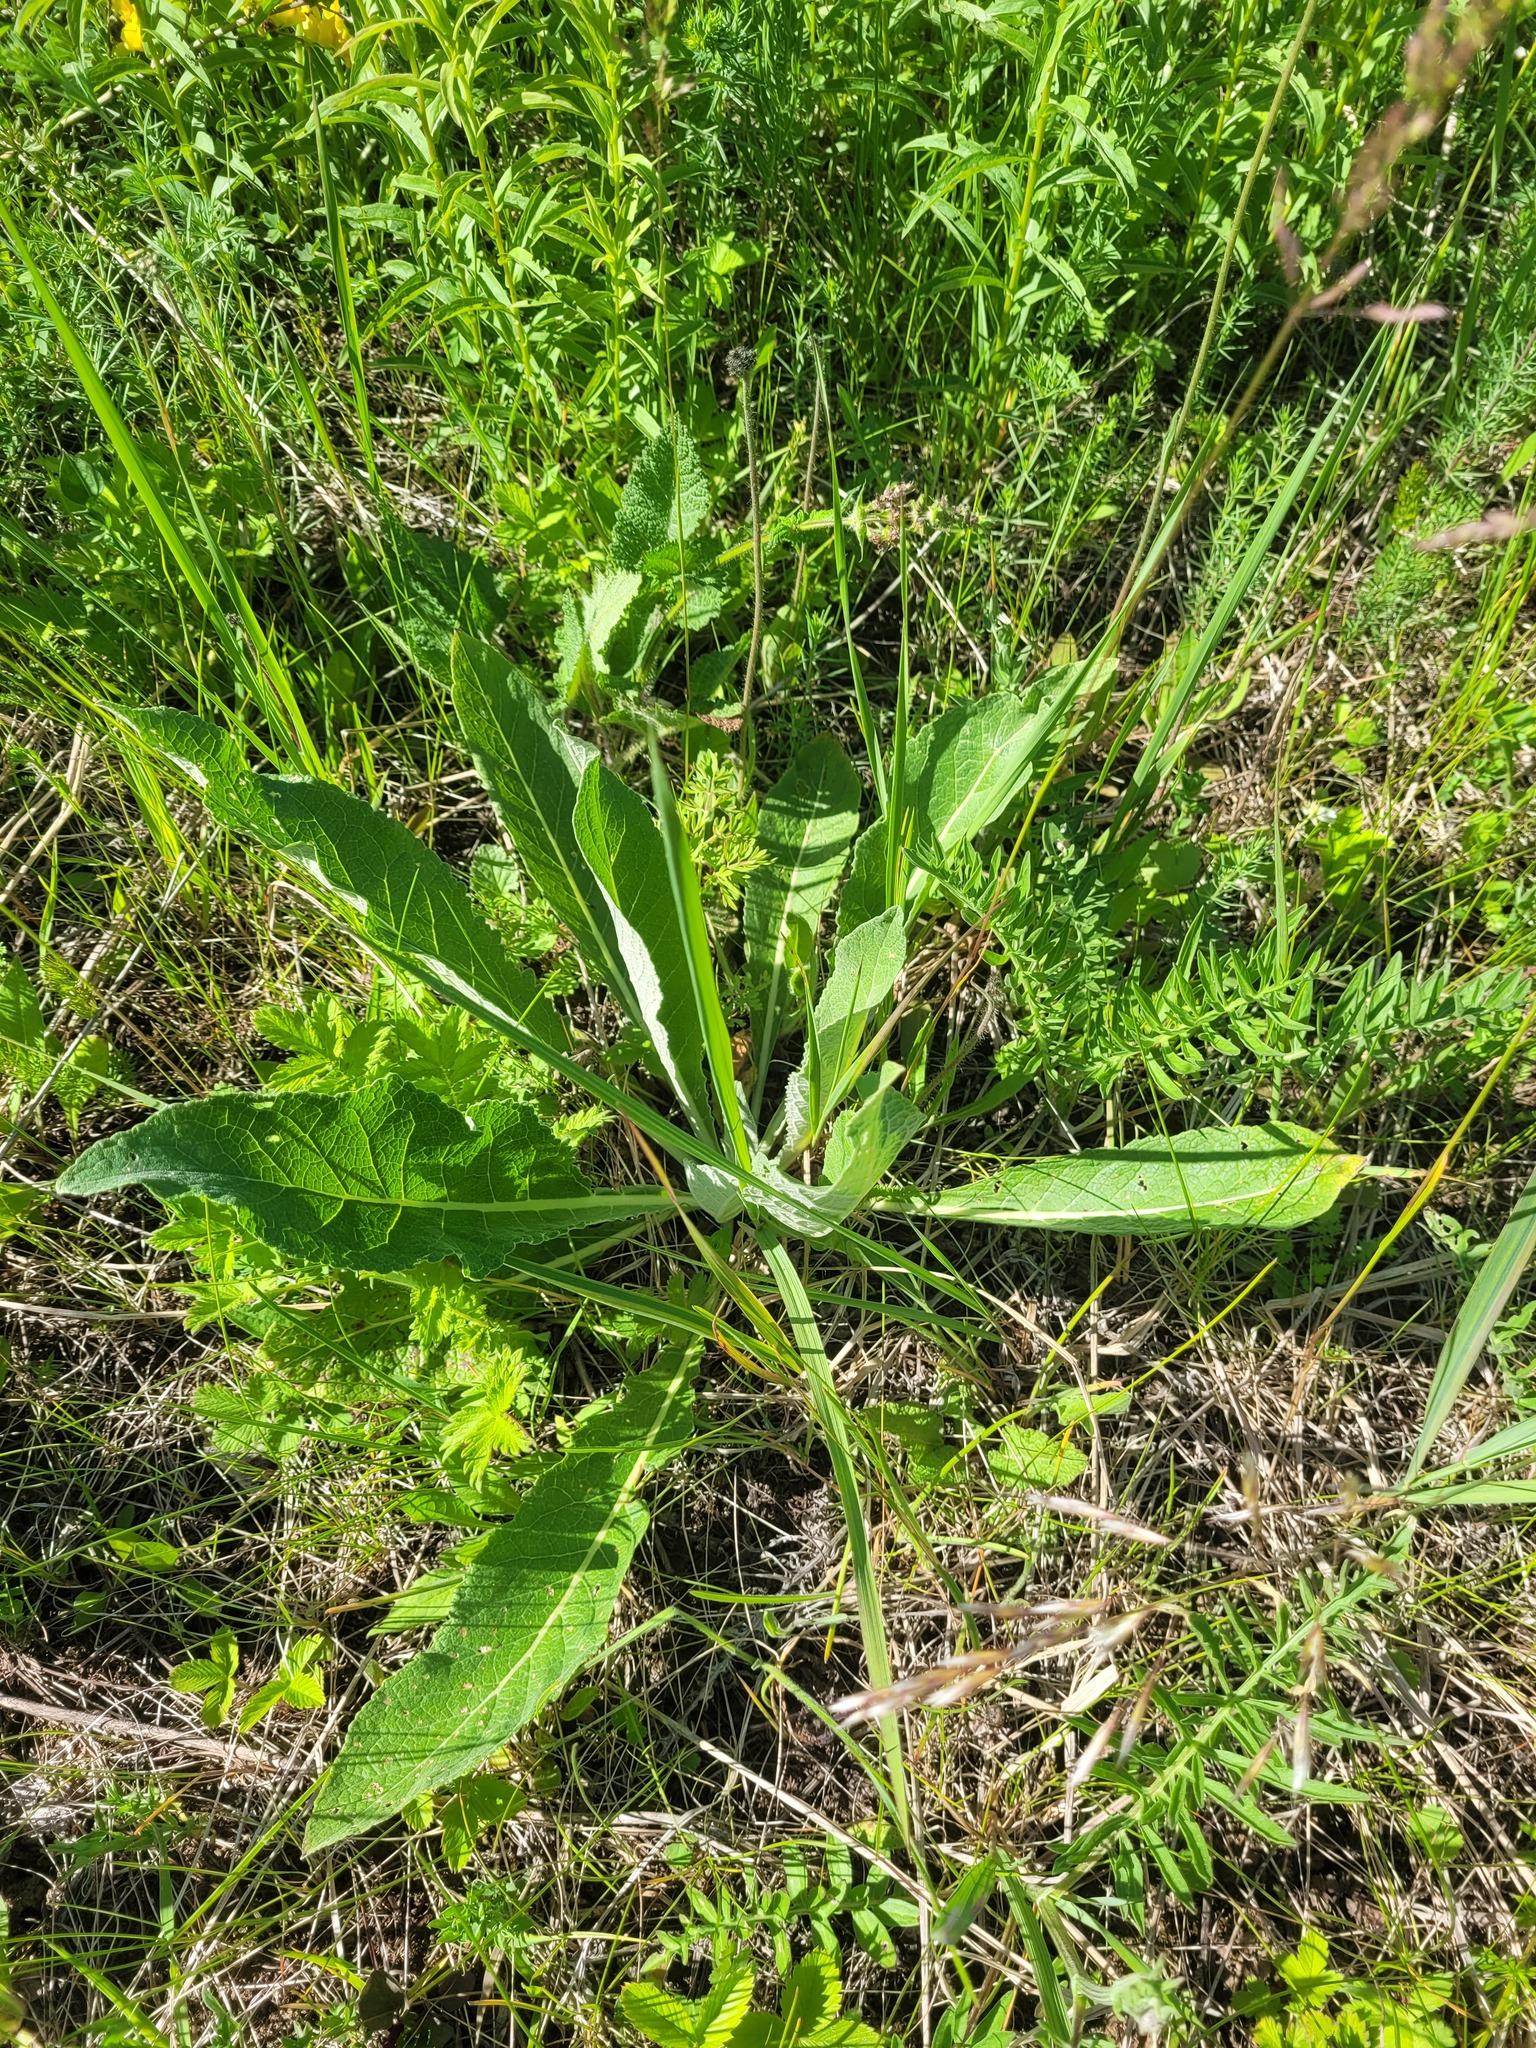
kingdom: Plantae
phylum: Tracheophyta
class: Magnoliopsida
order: Lamiales
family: Scrophulariaceae
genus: Verbascum
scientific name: Verbascum lychnitis
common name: White mullein
